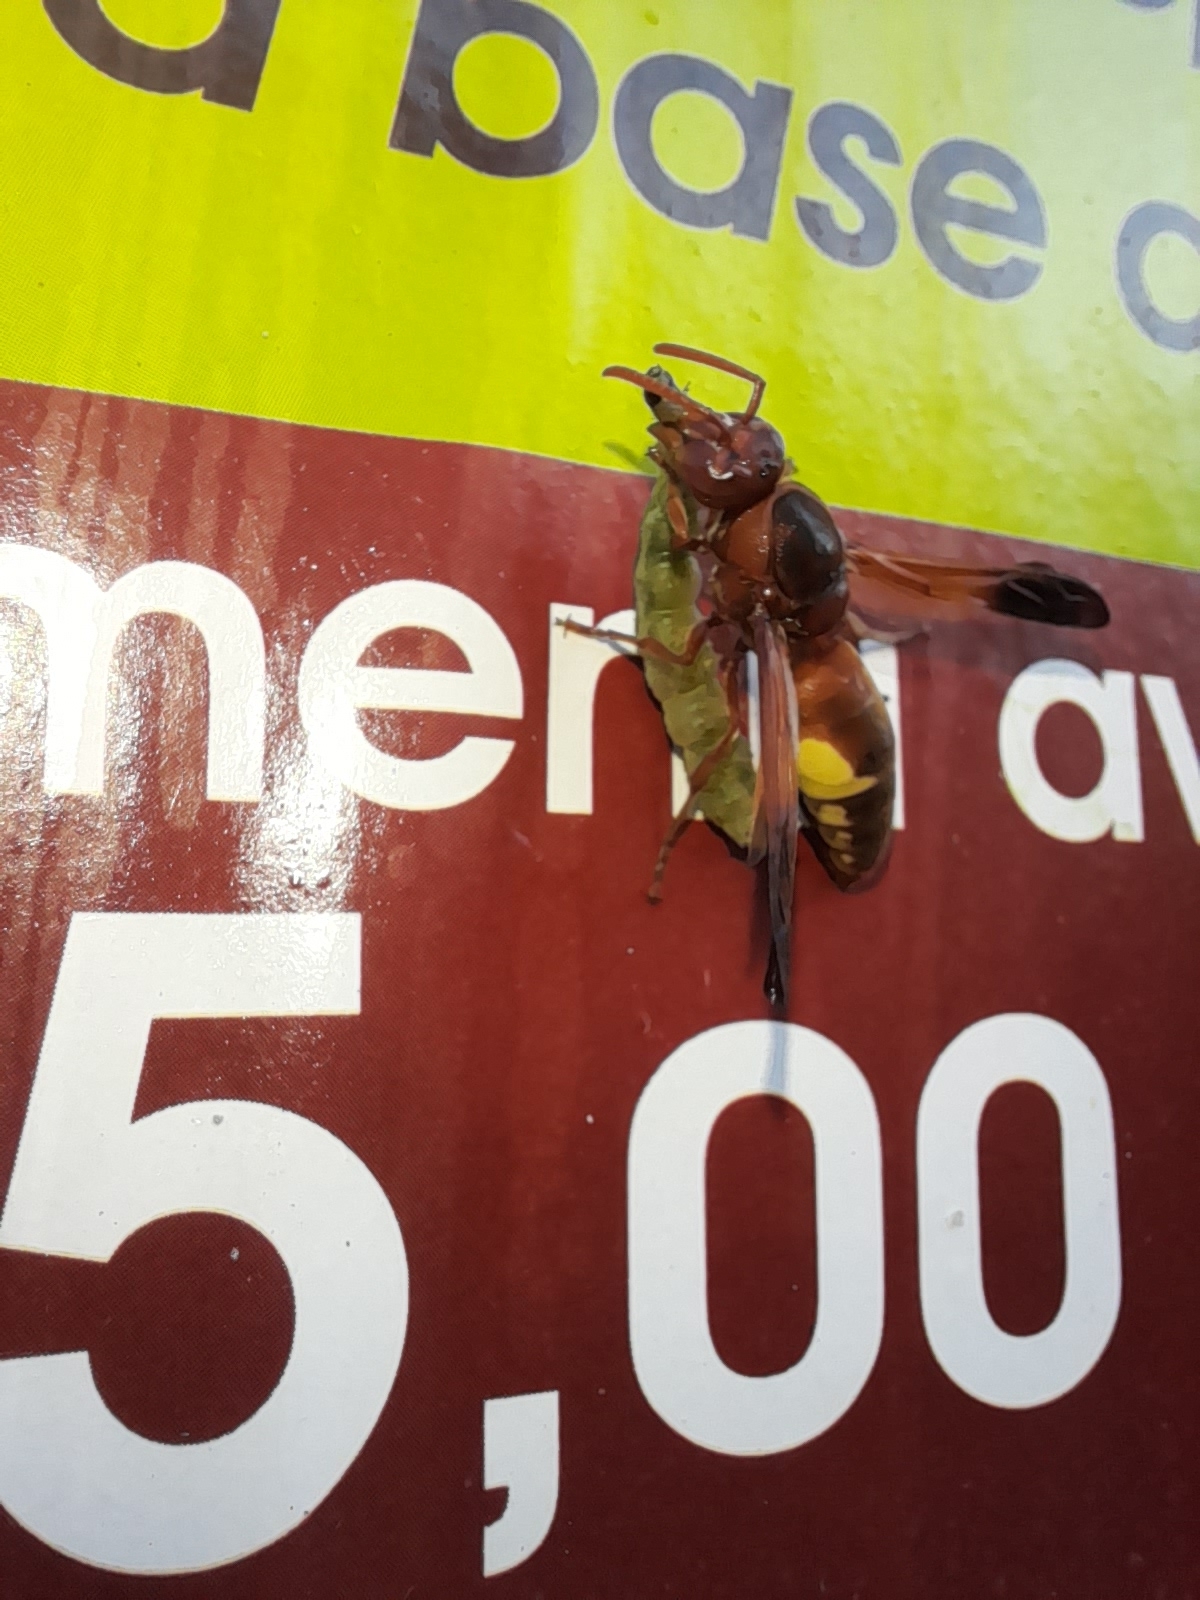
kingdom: Animalia
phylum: Arthropoda
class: Insecta
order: Hymenoptera
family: Eumenidae
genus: Rhynchium
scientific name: Rhynchium oculatum
